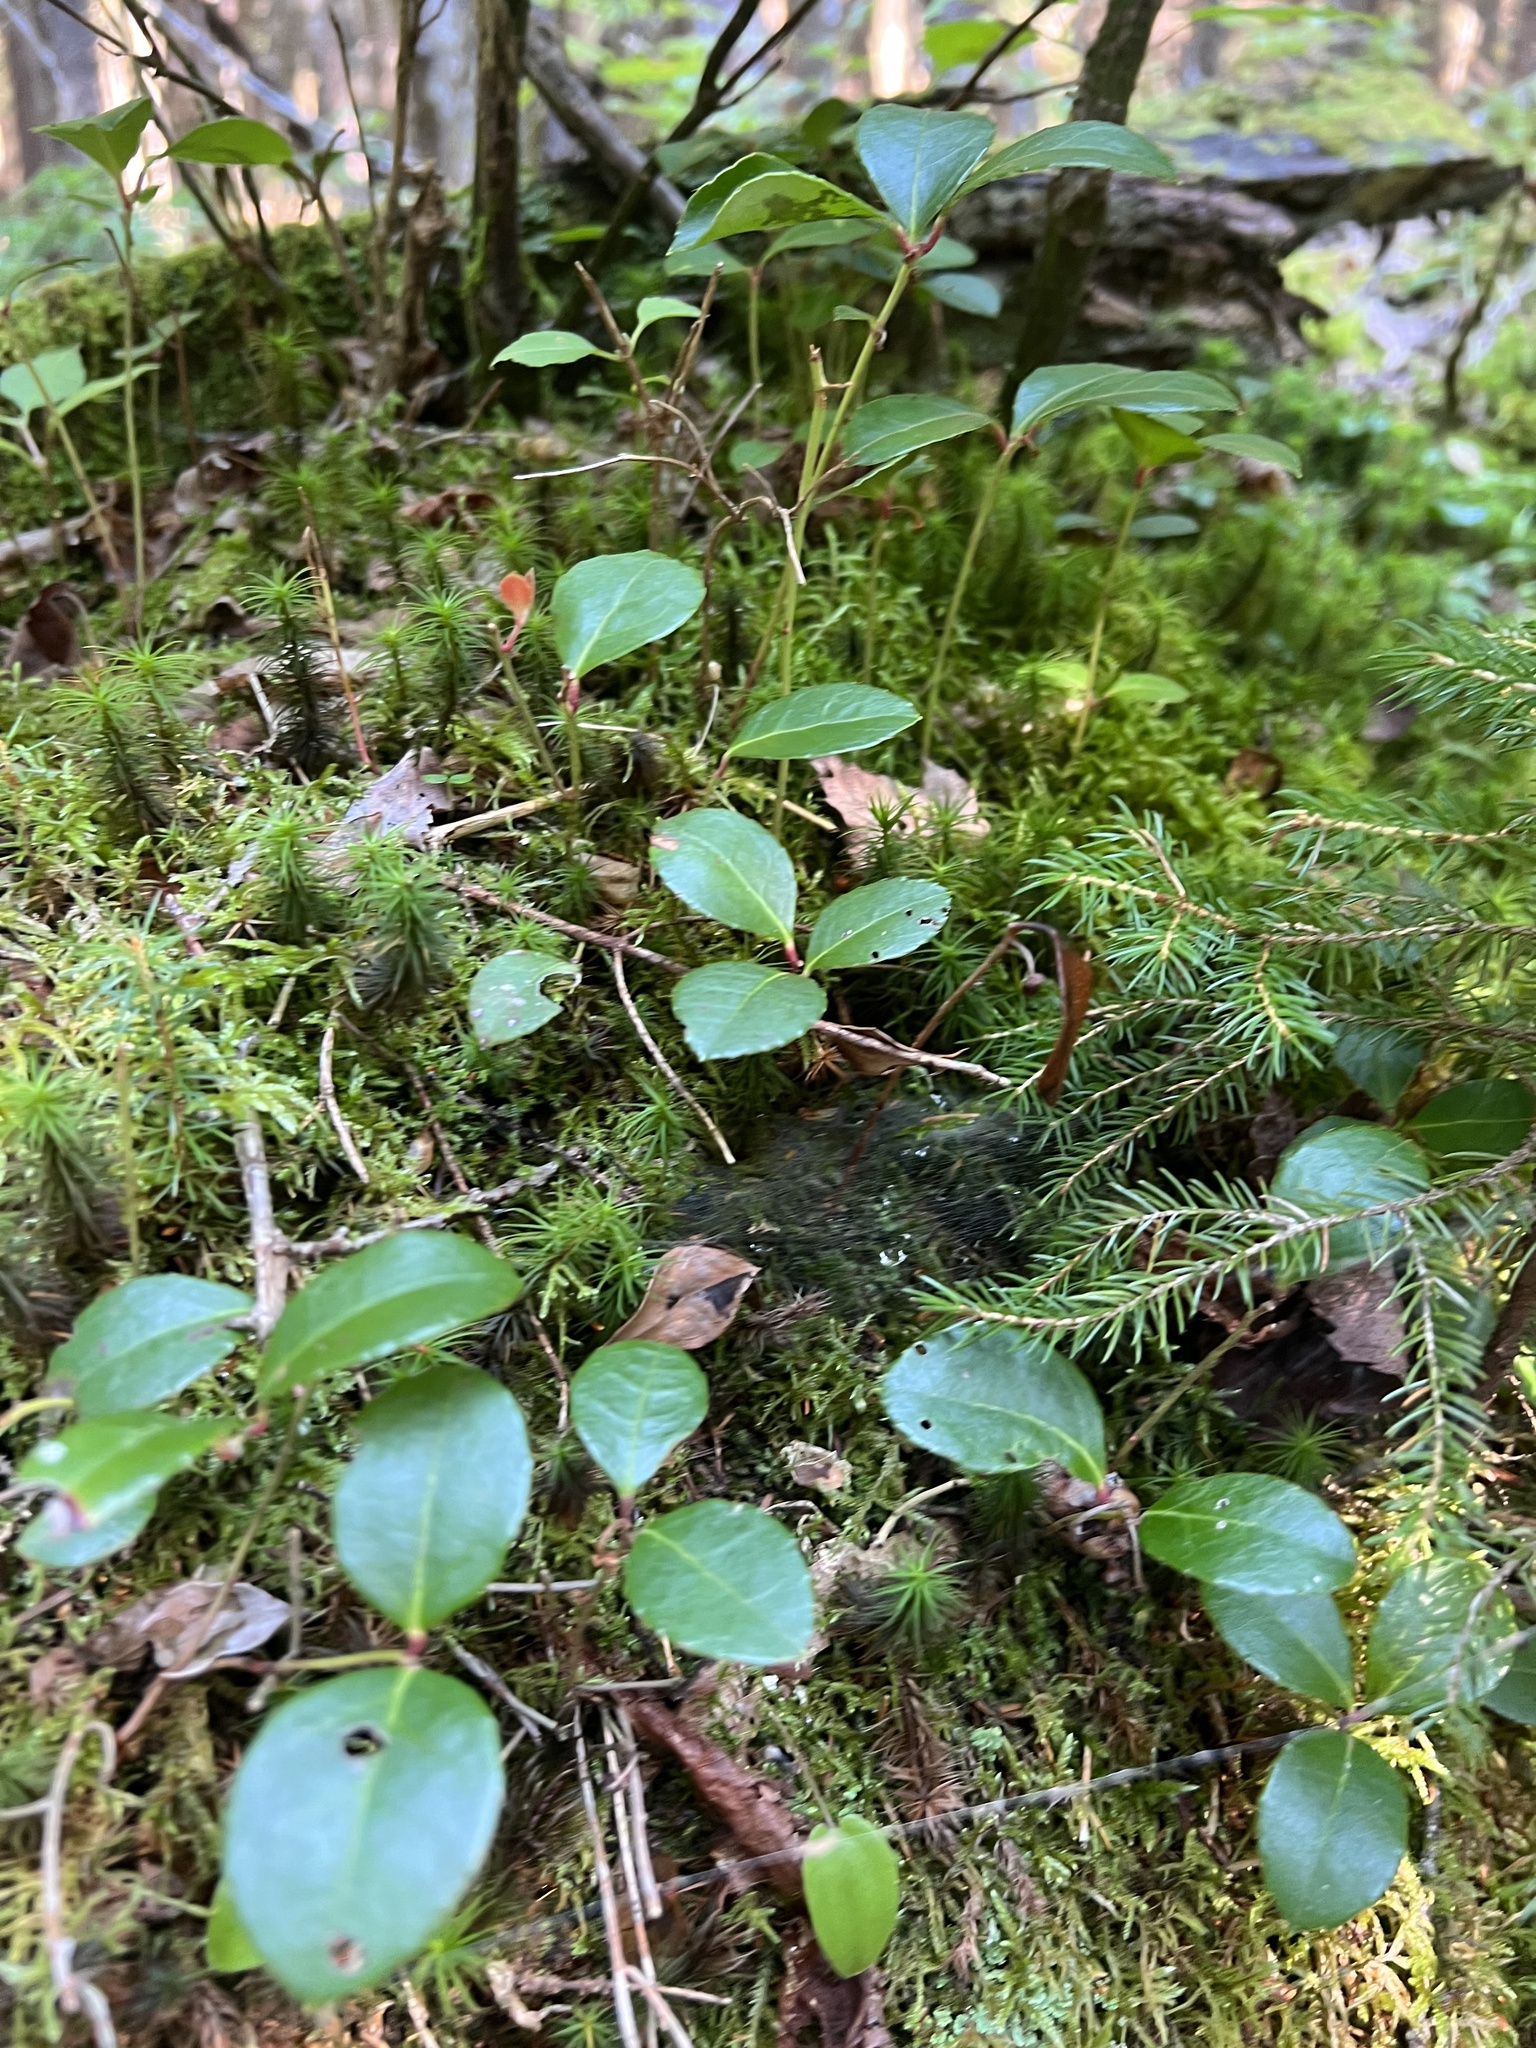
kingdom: Plantae
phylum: Tracheophyta
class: Magnoliopsida
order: Ericales
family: Ericaceae
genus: Gaultheria
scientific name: Gaultheria procumbens
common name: Checkerberry
